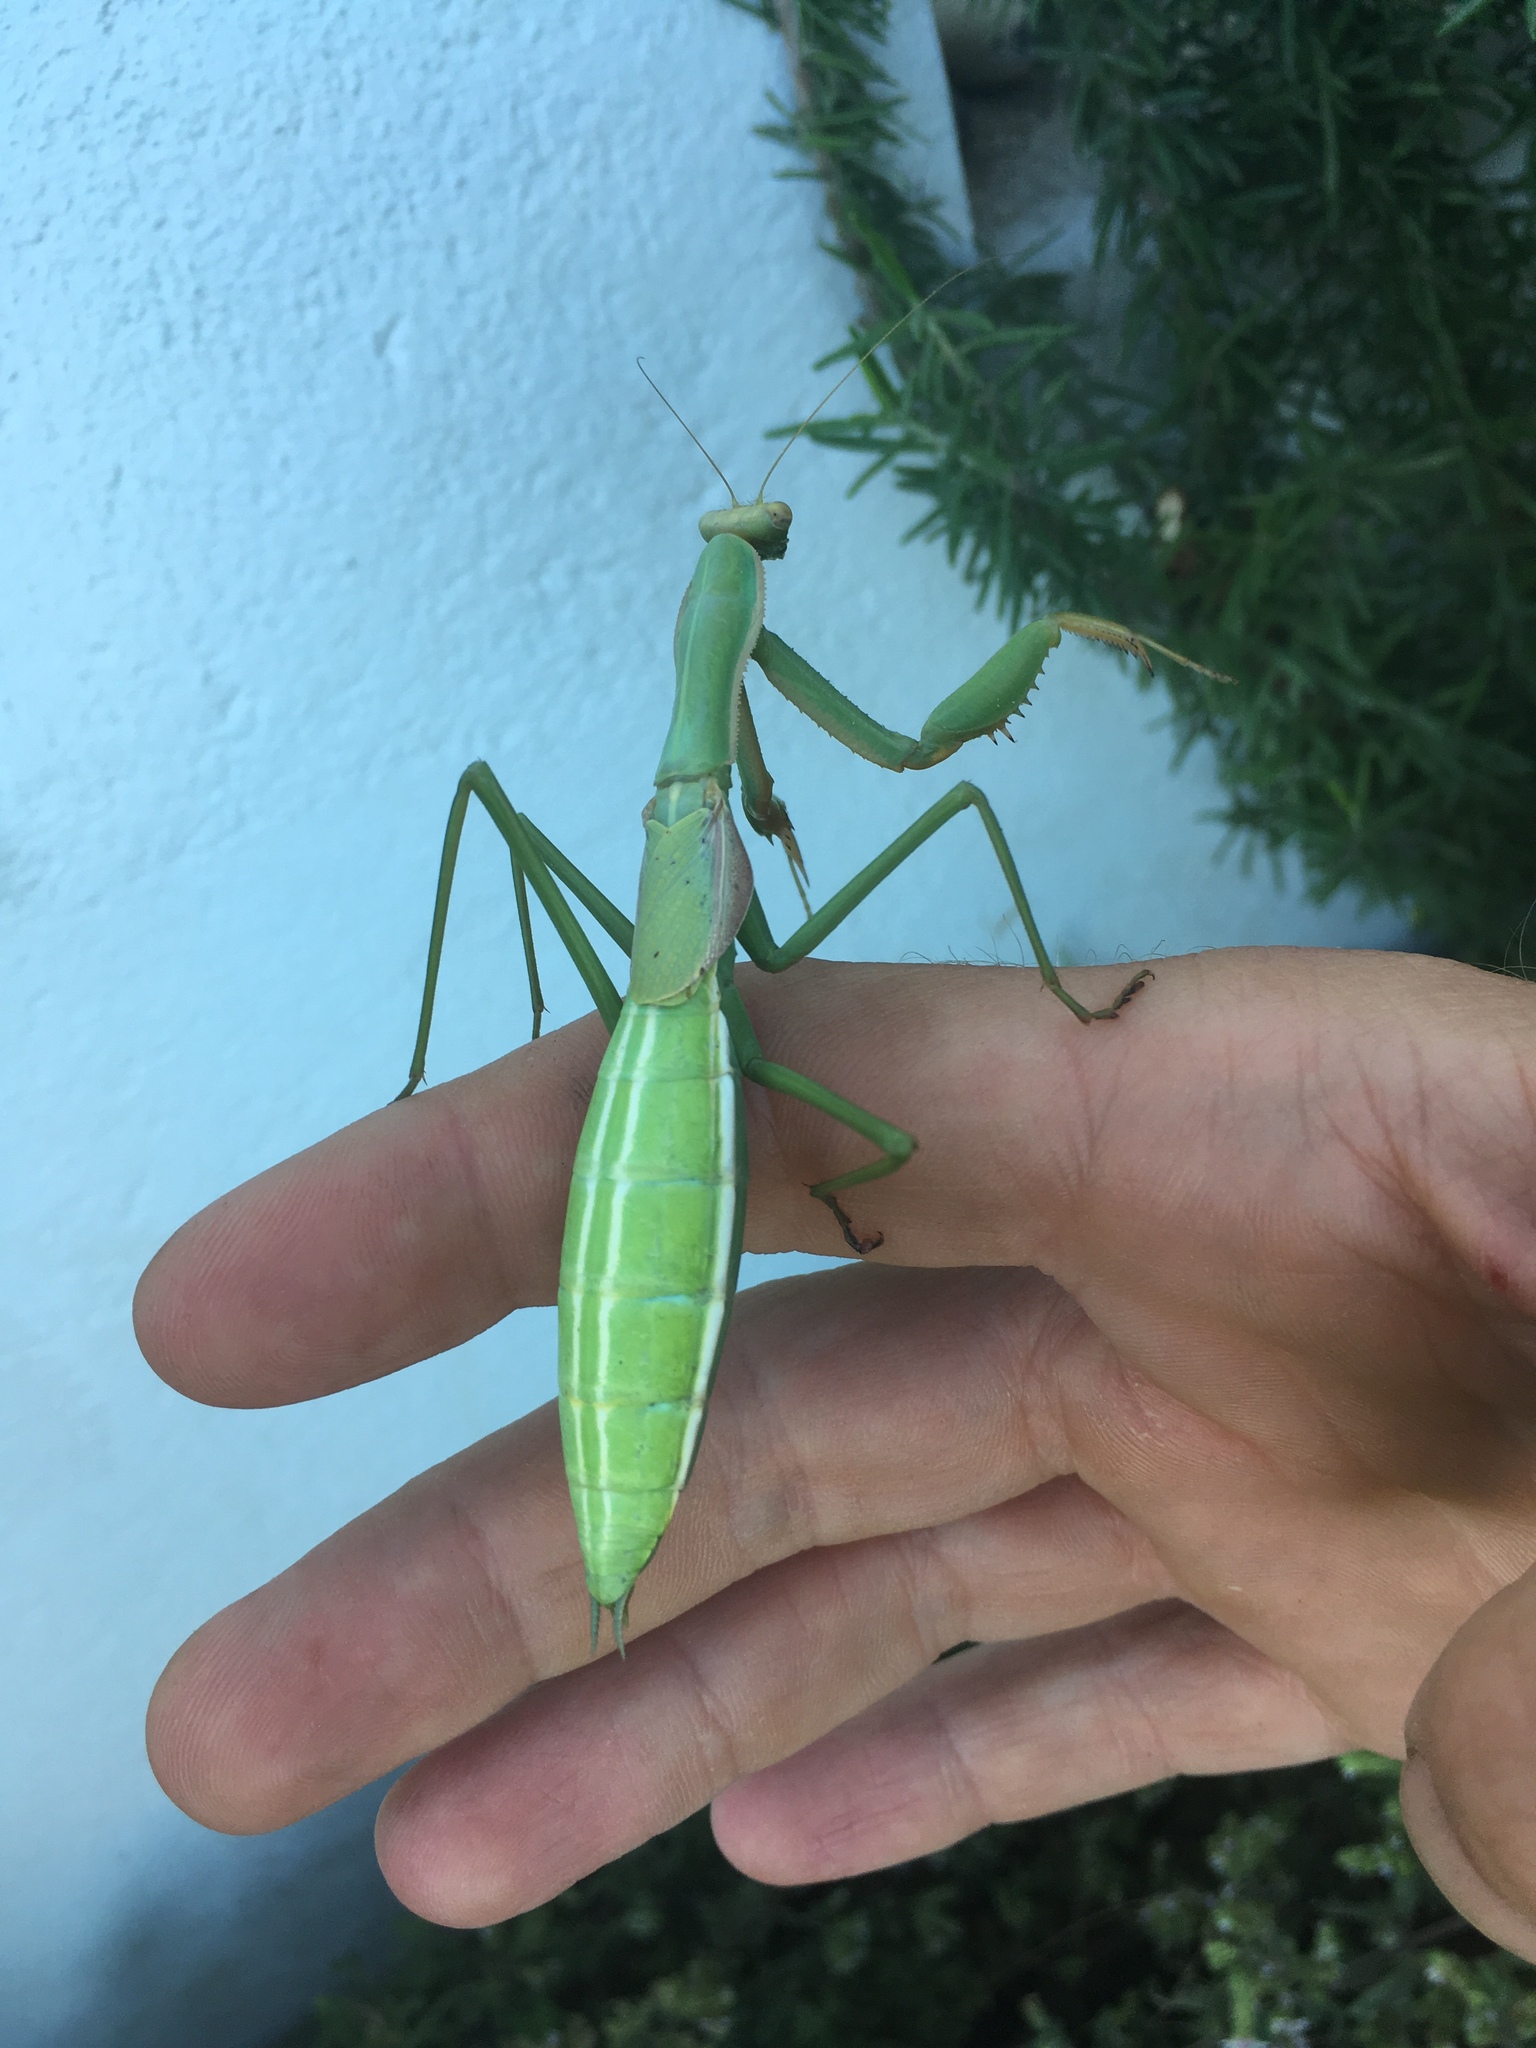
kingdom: Animalia
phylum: Arthropoda
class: Insecta
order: Mantodea
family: Coptopterygidae
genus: Coptopteryx
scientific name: Coptopteryx argentina
